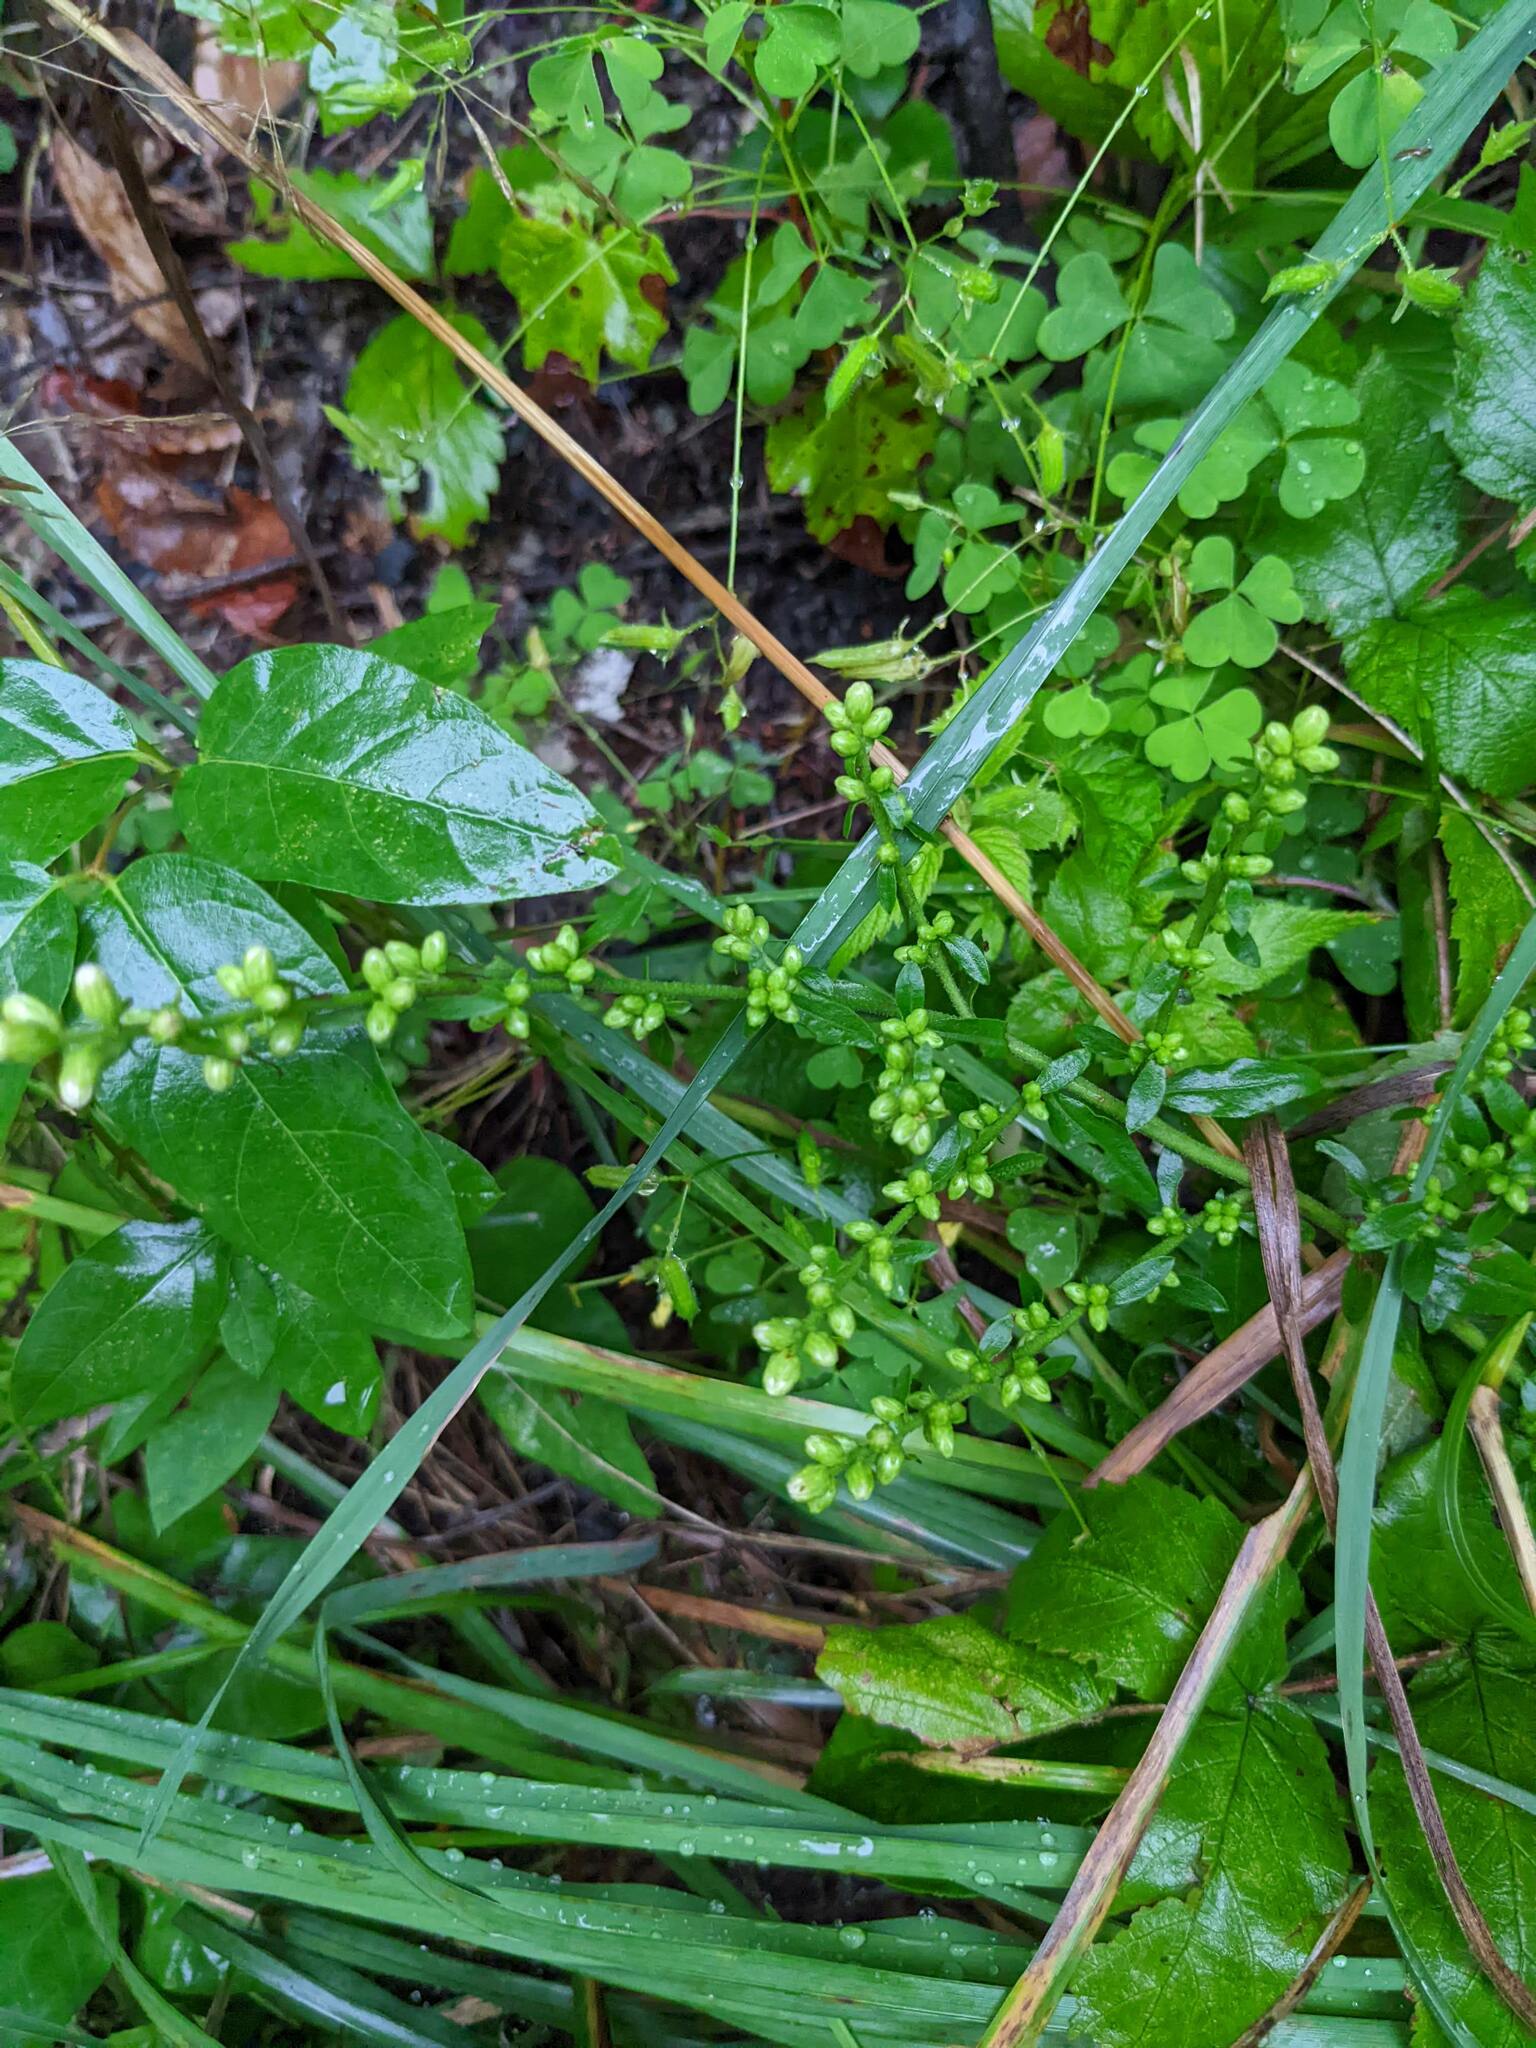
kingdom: Plantae
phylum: Tracheophyta
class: Magnoliopsida
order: Asterales
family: Asteraceae
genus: Solidago
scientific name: Solidago bicolor
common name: Silverrod
